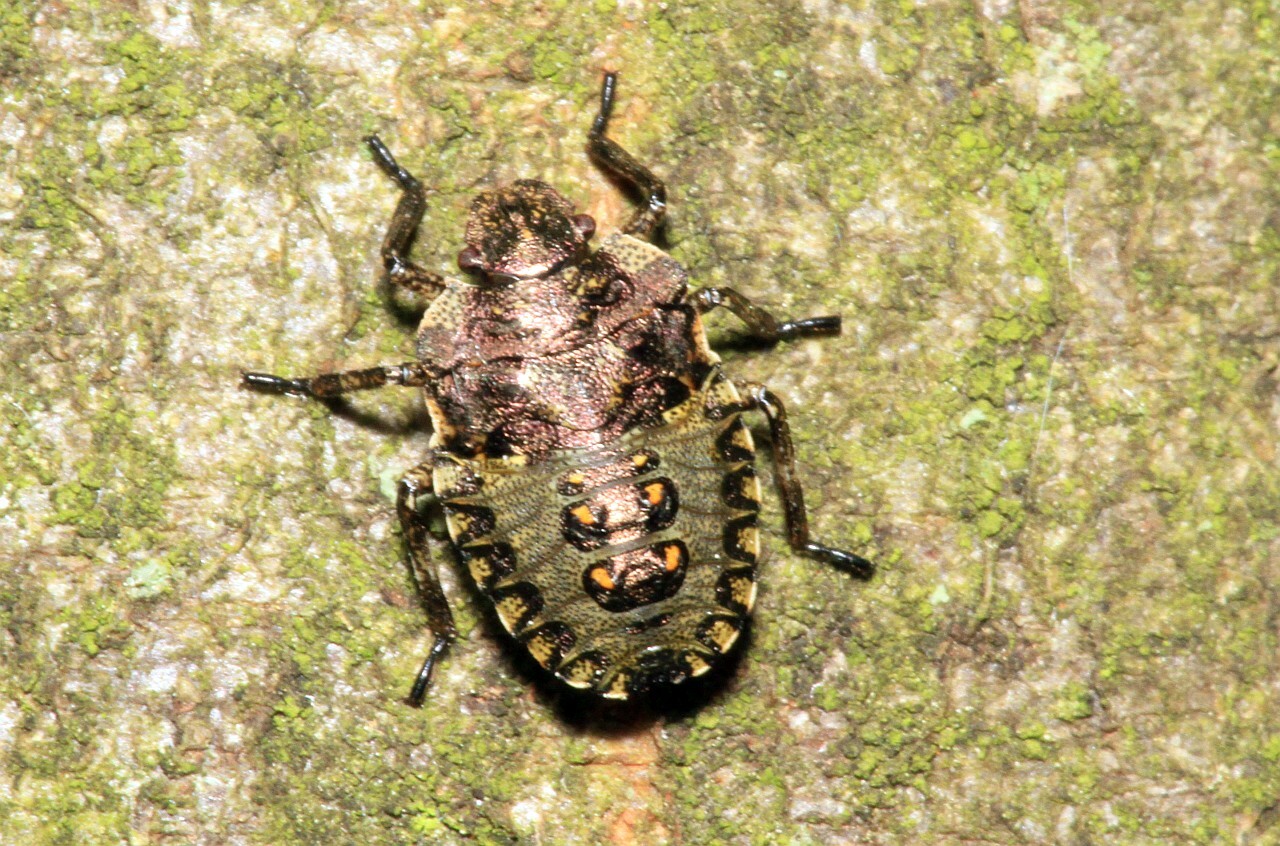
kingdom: Animalia
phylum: Arthropoda
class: Insecta
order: Hemiptera
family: Pentatomidae
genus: Pentatoma
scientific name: Pentatoma rufipes
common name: Forest bug
